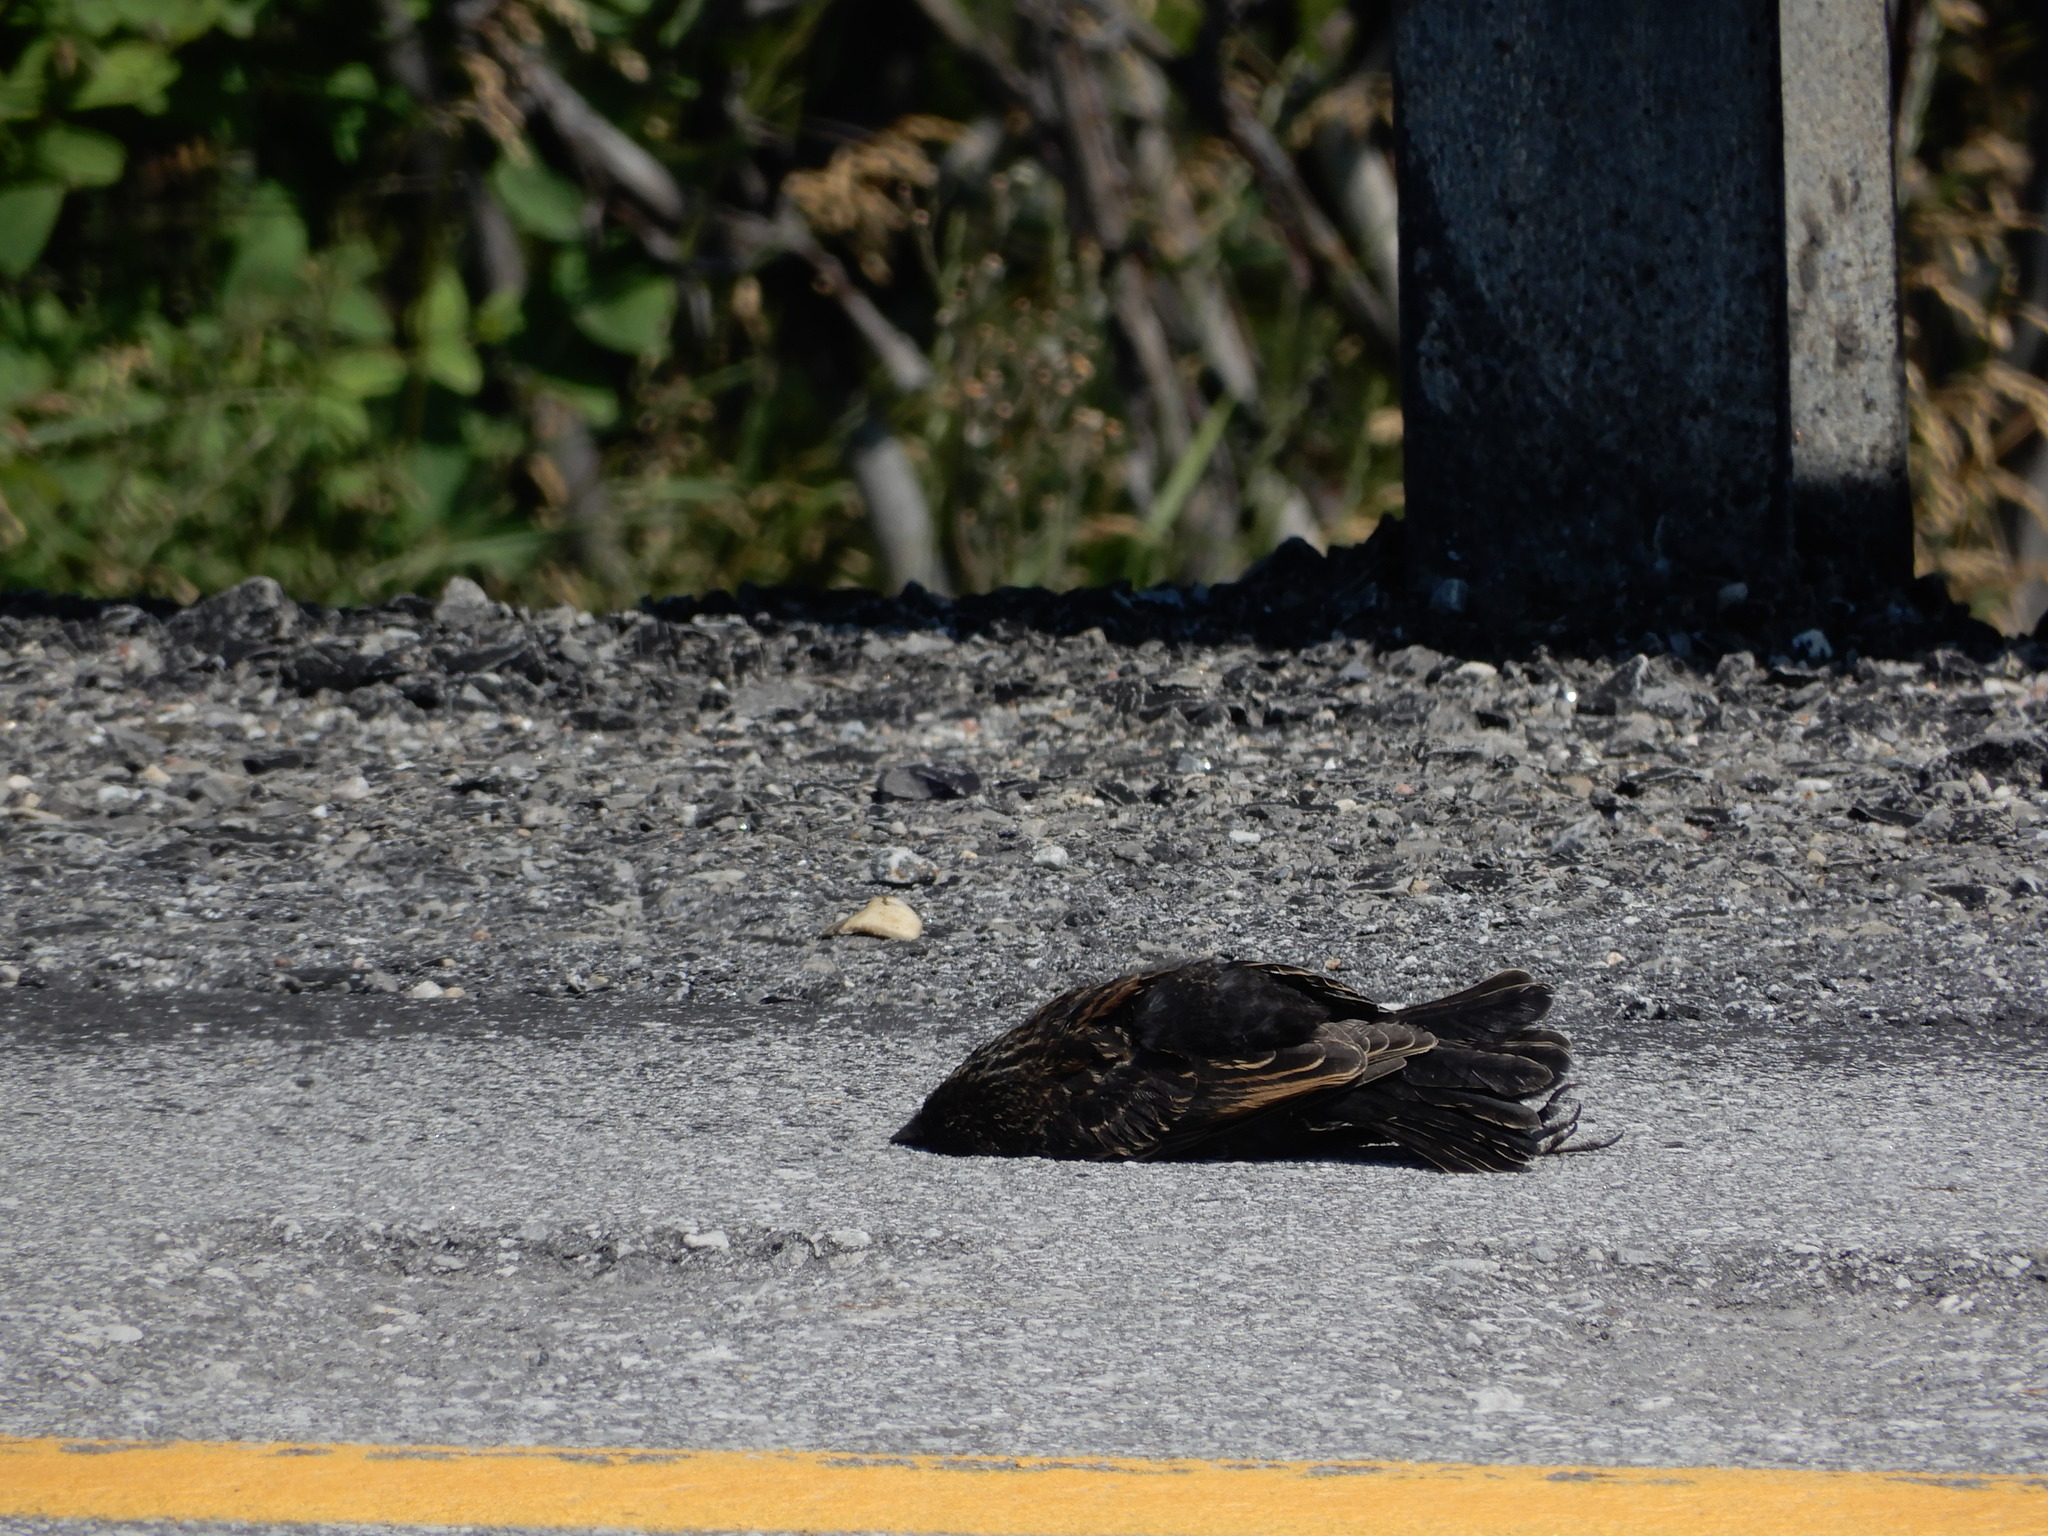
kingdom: Animalia
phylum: Chordata
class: Aves
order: Passeriformes
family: Icteridae
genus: Agelaius
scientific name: Agelaius phoeniceus
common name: Red-winged blackbird
